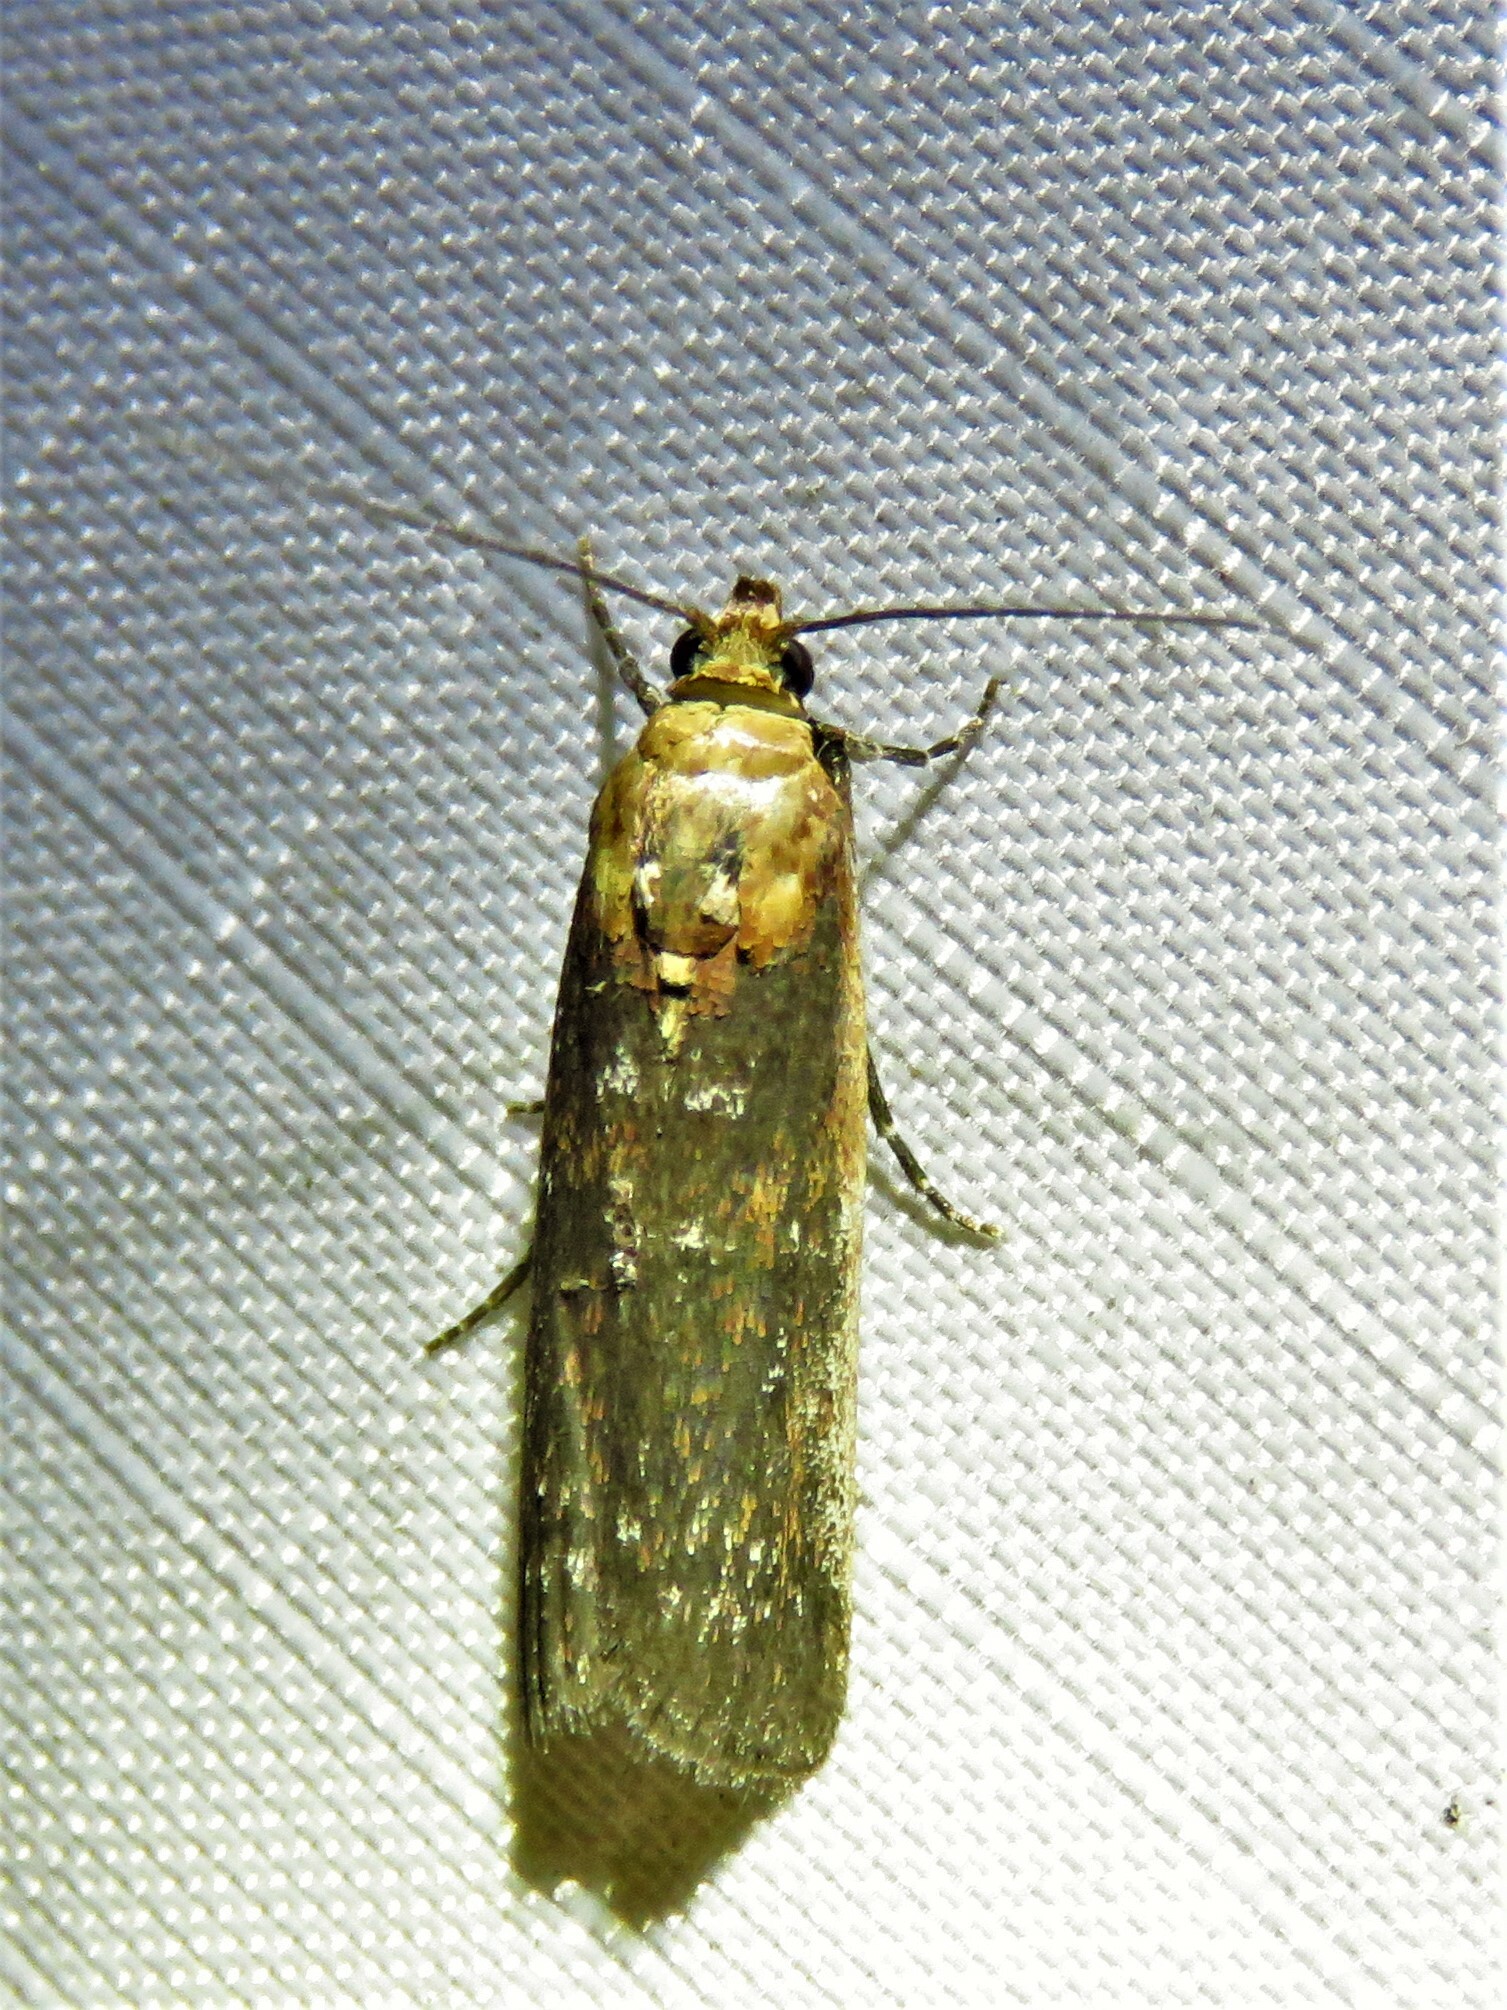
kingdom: Animalia
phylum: Arthropoda
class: Insecta
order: Lepidoptera
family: Pyralidae
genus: Adelphia
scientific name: Adelphia petrella
